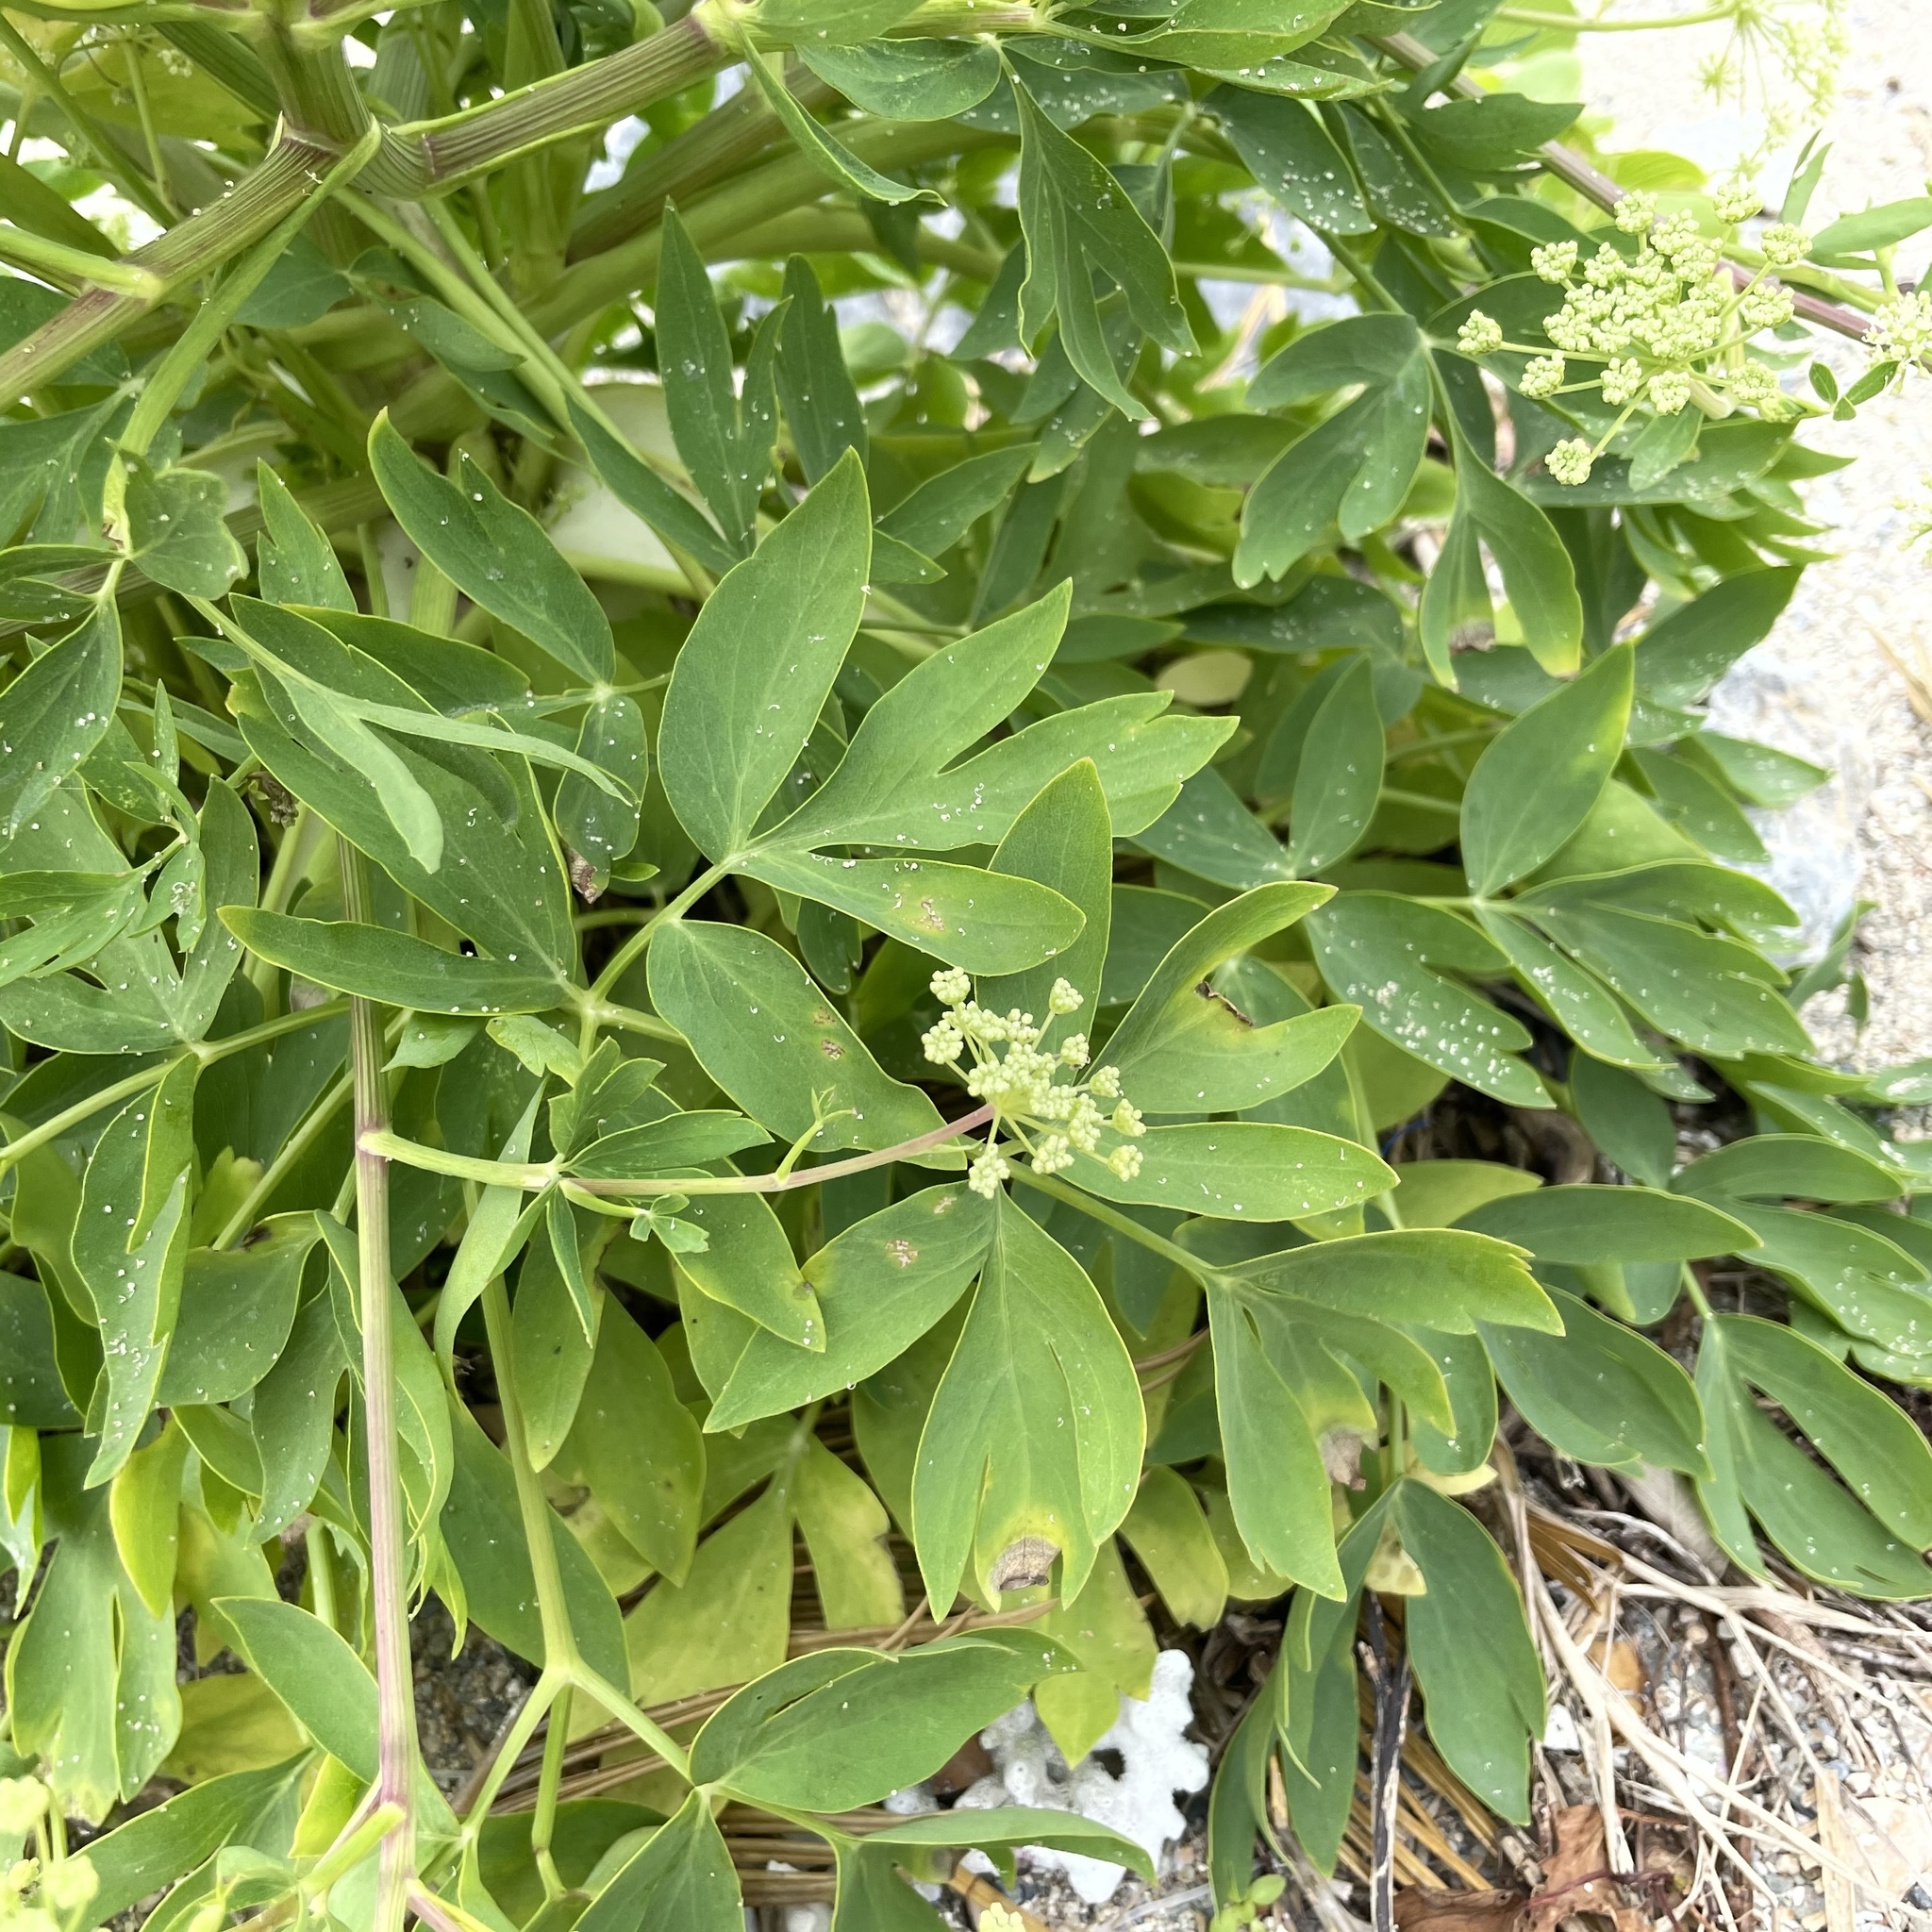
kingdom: Plantae
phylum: Tracheophyta
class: Magnoliopsida
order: Apiales
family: Apiaceae
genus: Peucedanum
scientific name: Peucedanum japonicum
